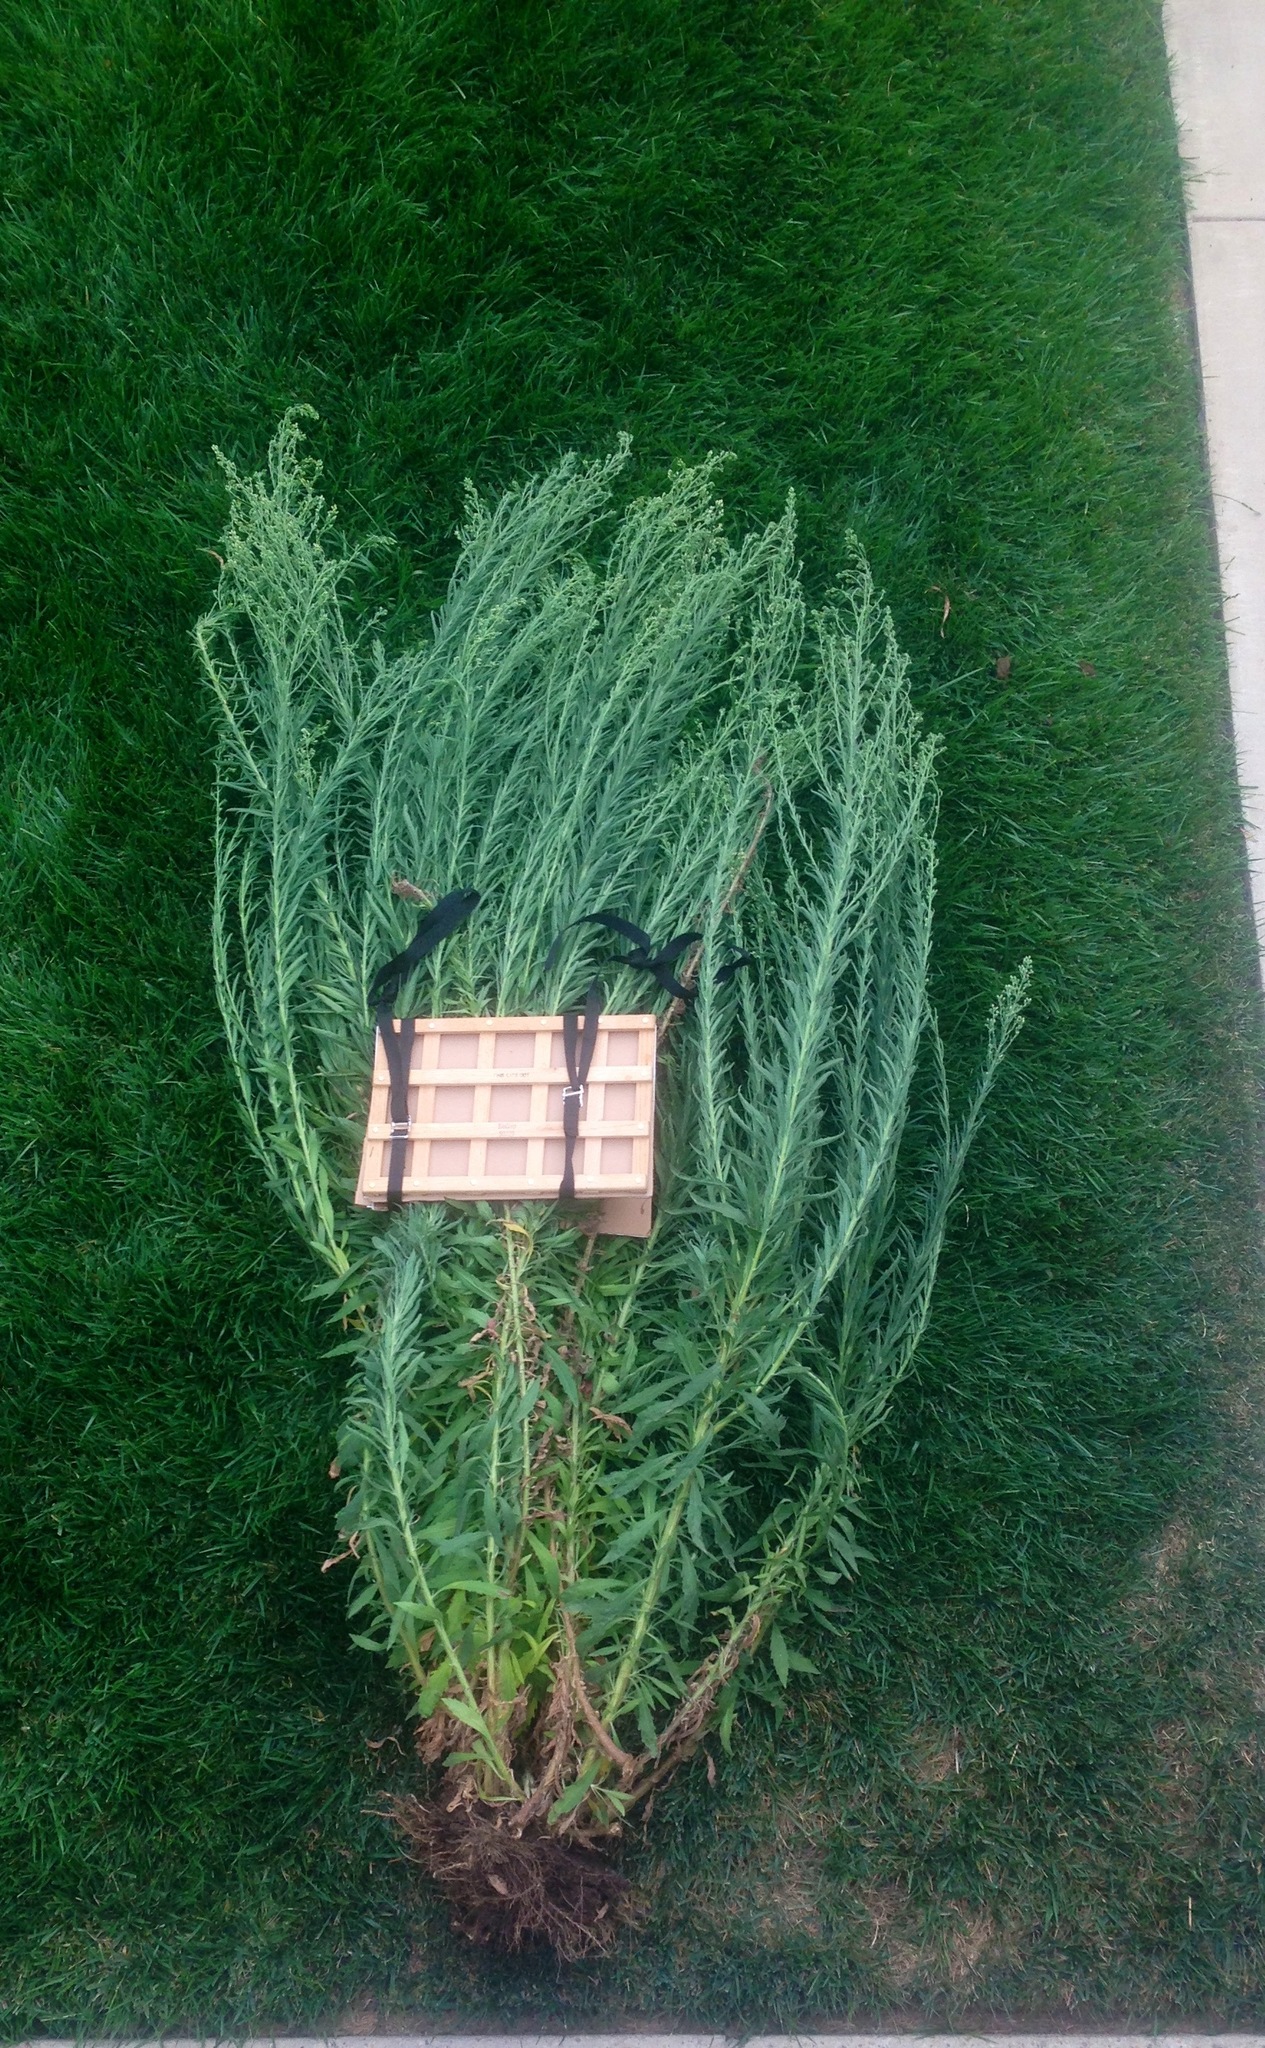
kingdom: Plantae
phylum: Tracheophyta
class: Magnoliopsida
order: Asterales
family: Asteraceae
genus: Erigeron
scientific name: Erigeron canadensis
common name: Canadian fleabane
